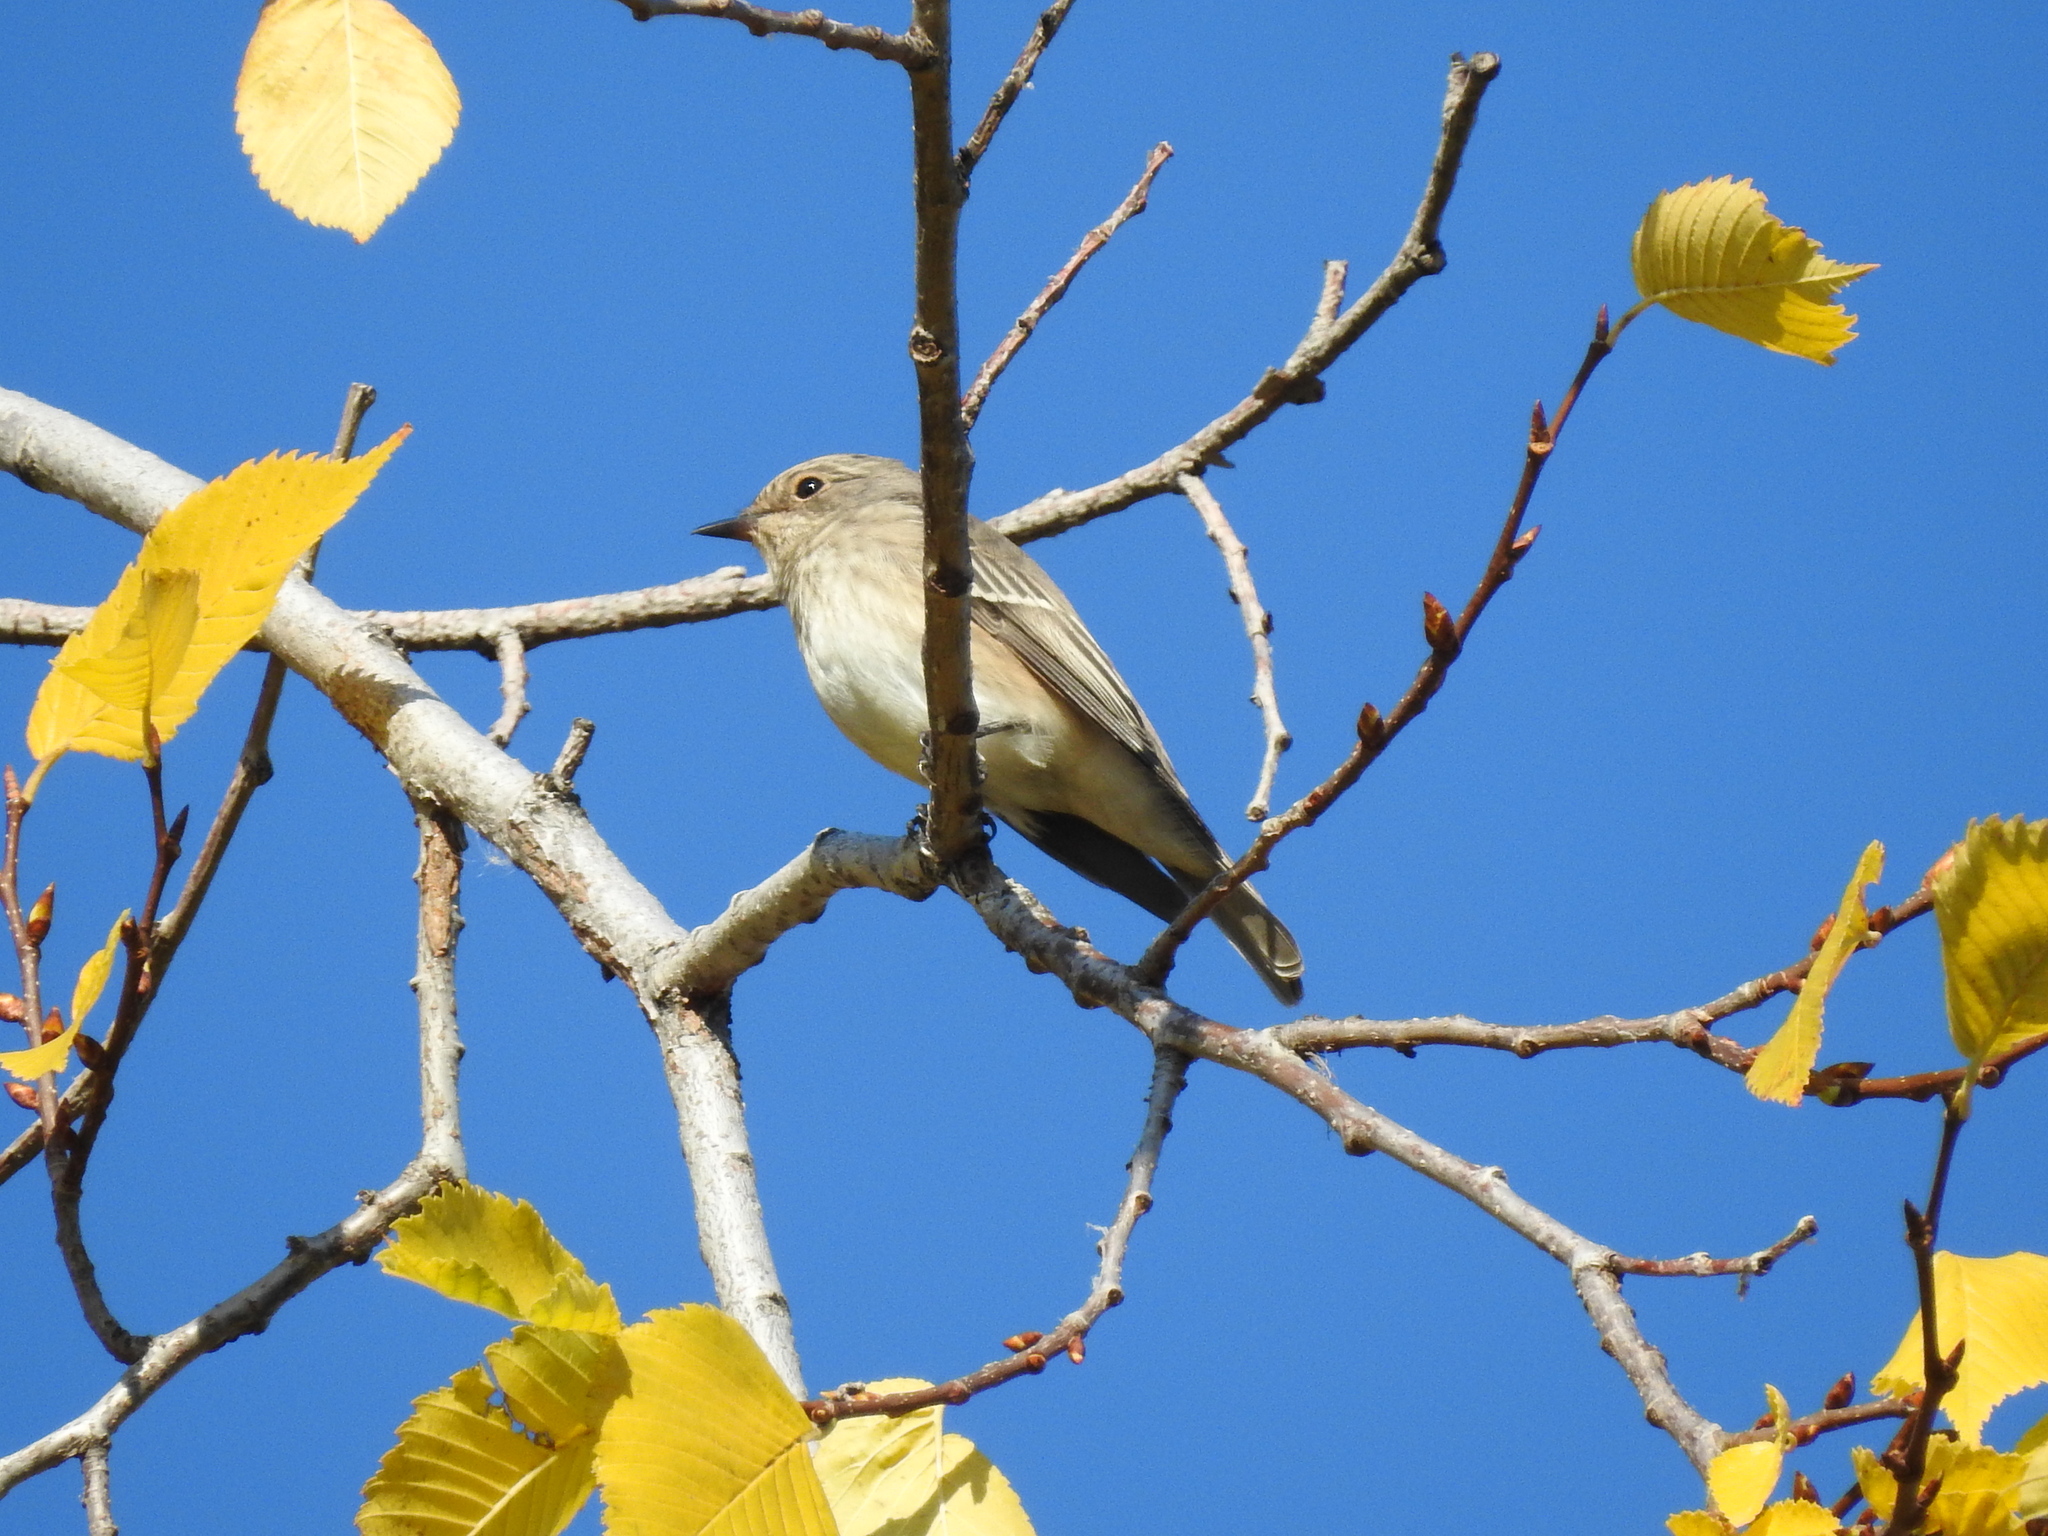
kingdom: Animalia
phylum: Chordata
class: Aves
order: Passeriformes
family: Muscicapidae
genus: Muscicapa
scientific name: Muscicapa striata
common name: Spotted flycatcher
